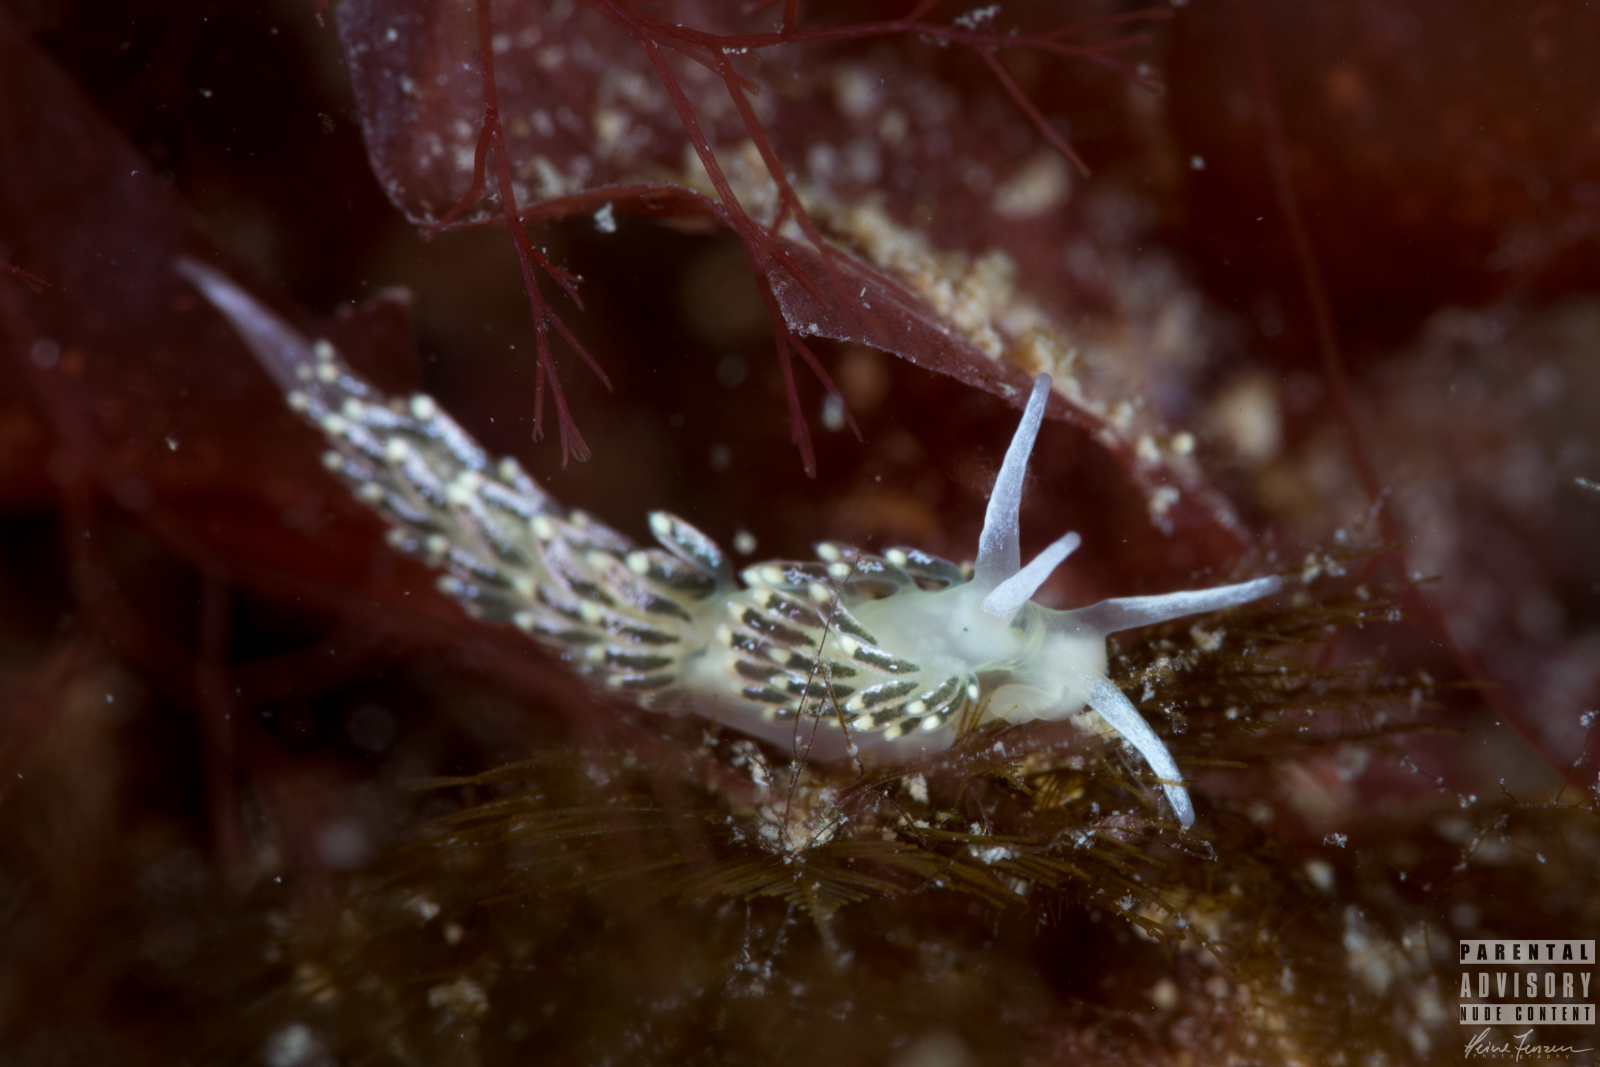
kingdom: Animalia
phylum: Mollusca
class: Gastropoda
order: Nudibranchia
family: Trinchesiidae
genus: Diaphoreolis
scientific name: Diaphoreolis viridis
